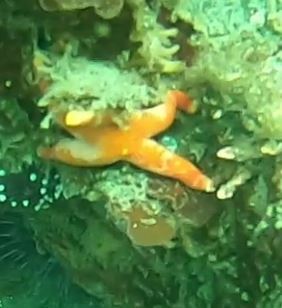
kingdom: Animalia
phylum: Echinodermata
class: Asteroidea
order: Spinulosida
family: Echinasteridae
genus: Henricia
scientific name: Henricia pumila
